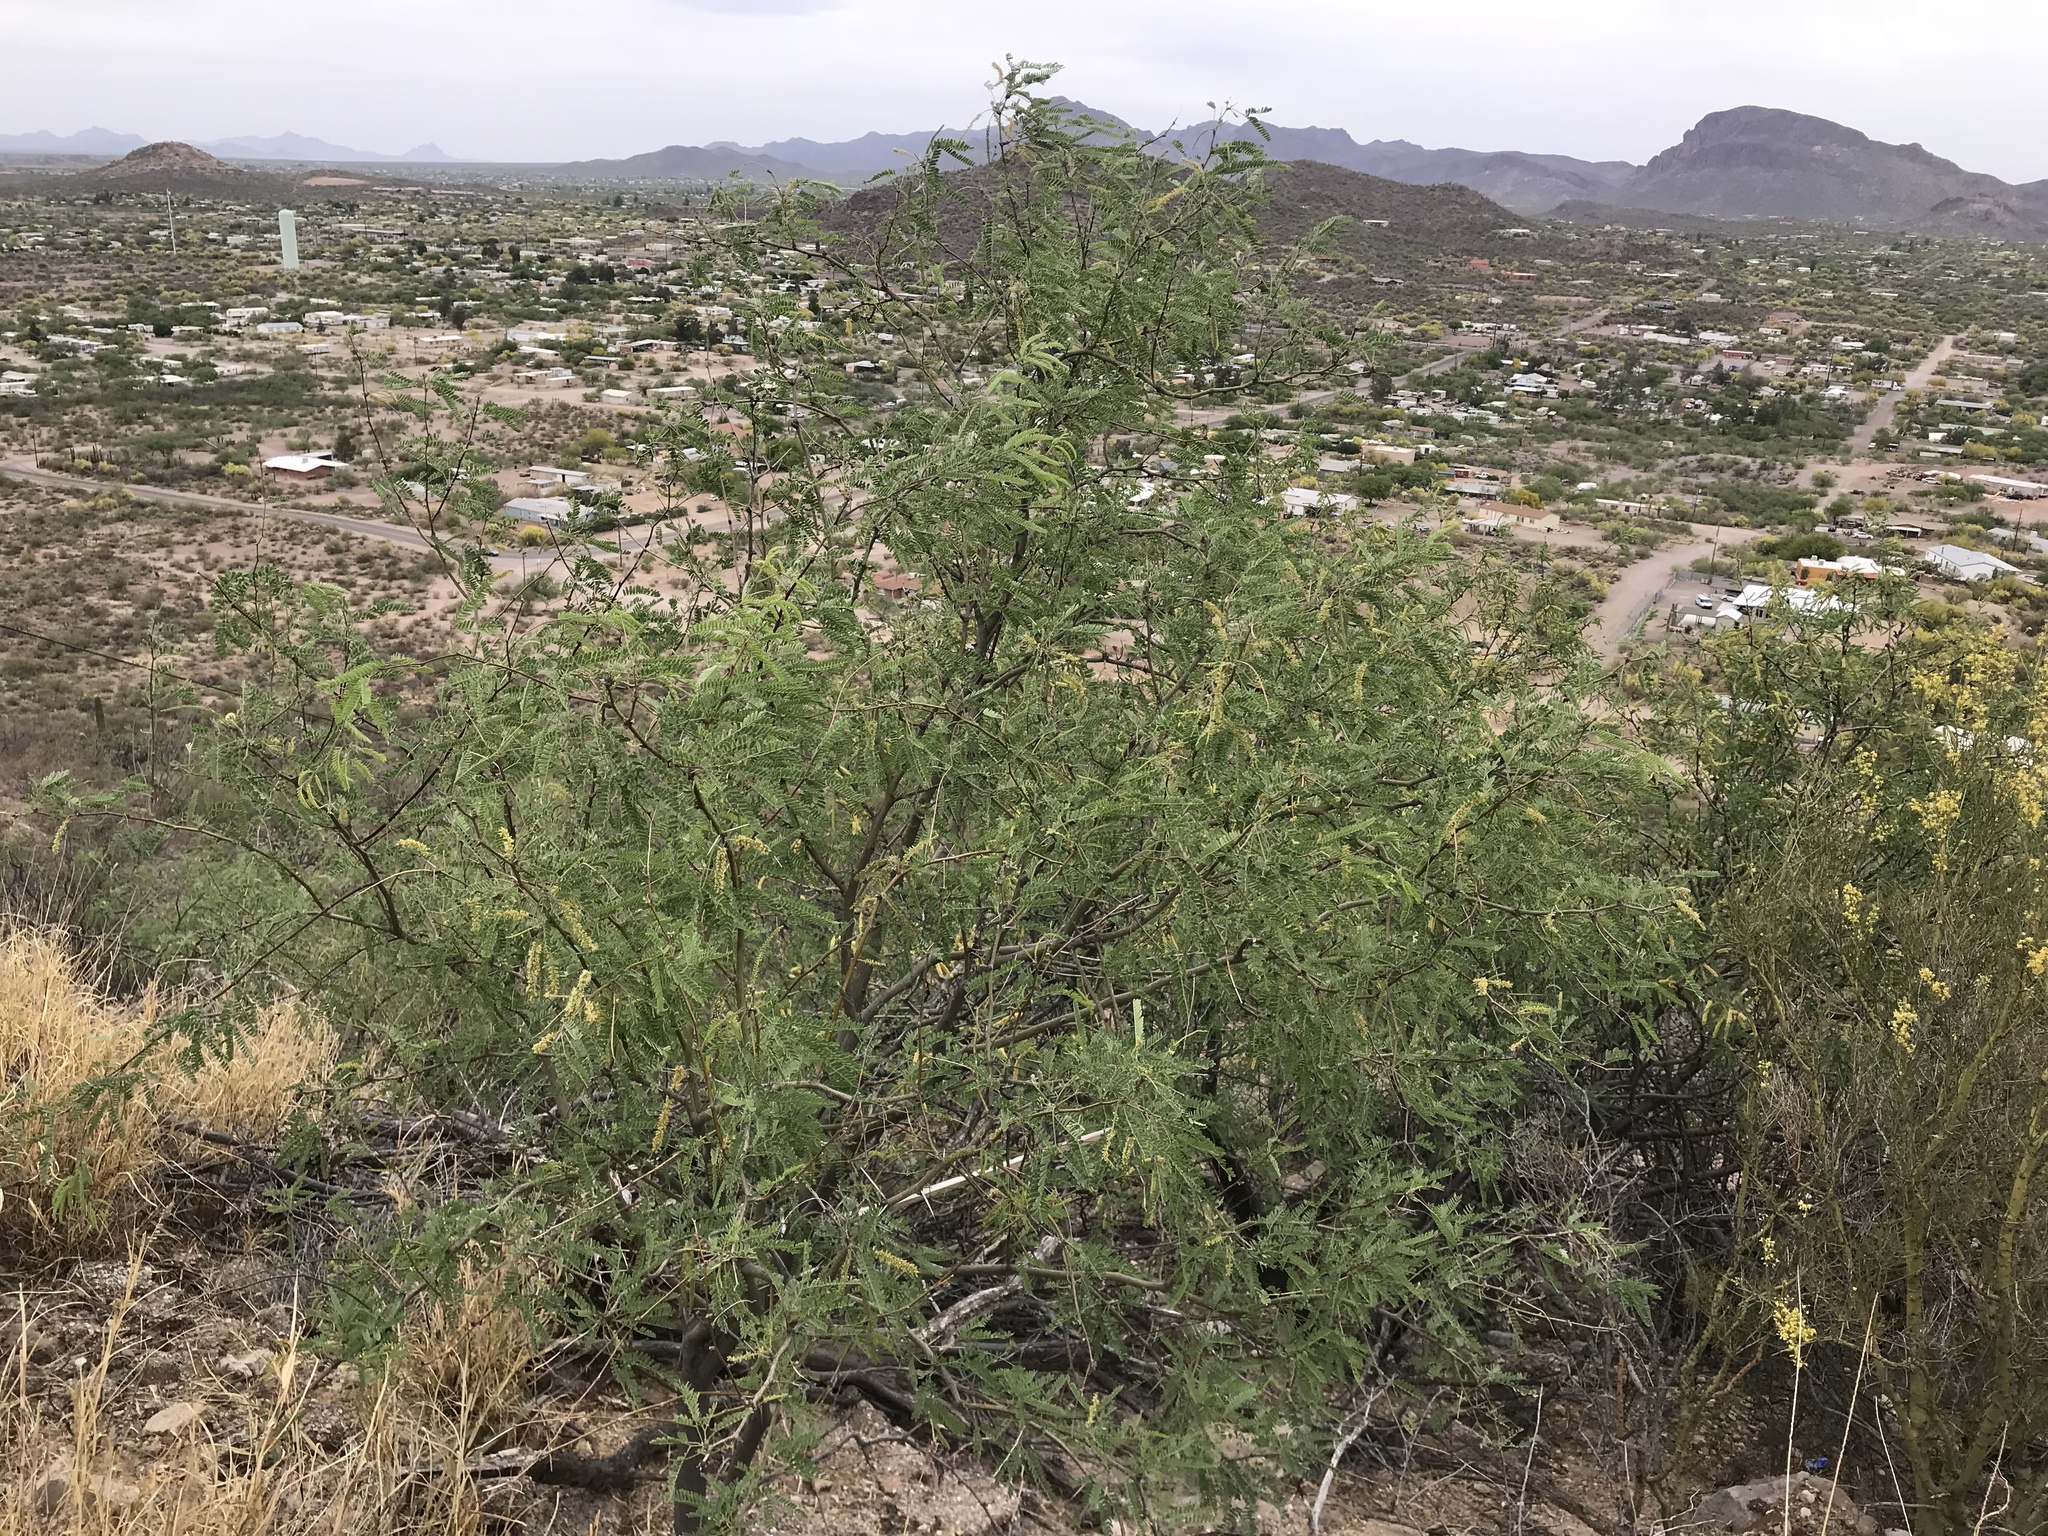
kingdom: Plantae
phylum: Tracheophyta
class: Magnoliopsida
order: Fabales
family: Fabaceae
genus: Prosopis
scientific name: Prosopis velutina
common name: Velvet mesquite
